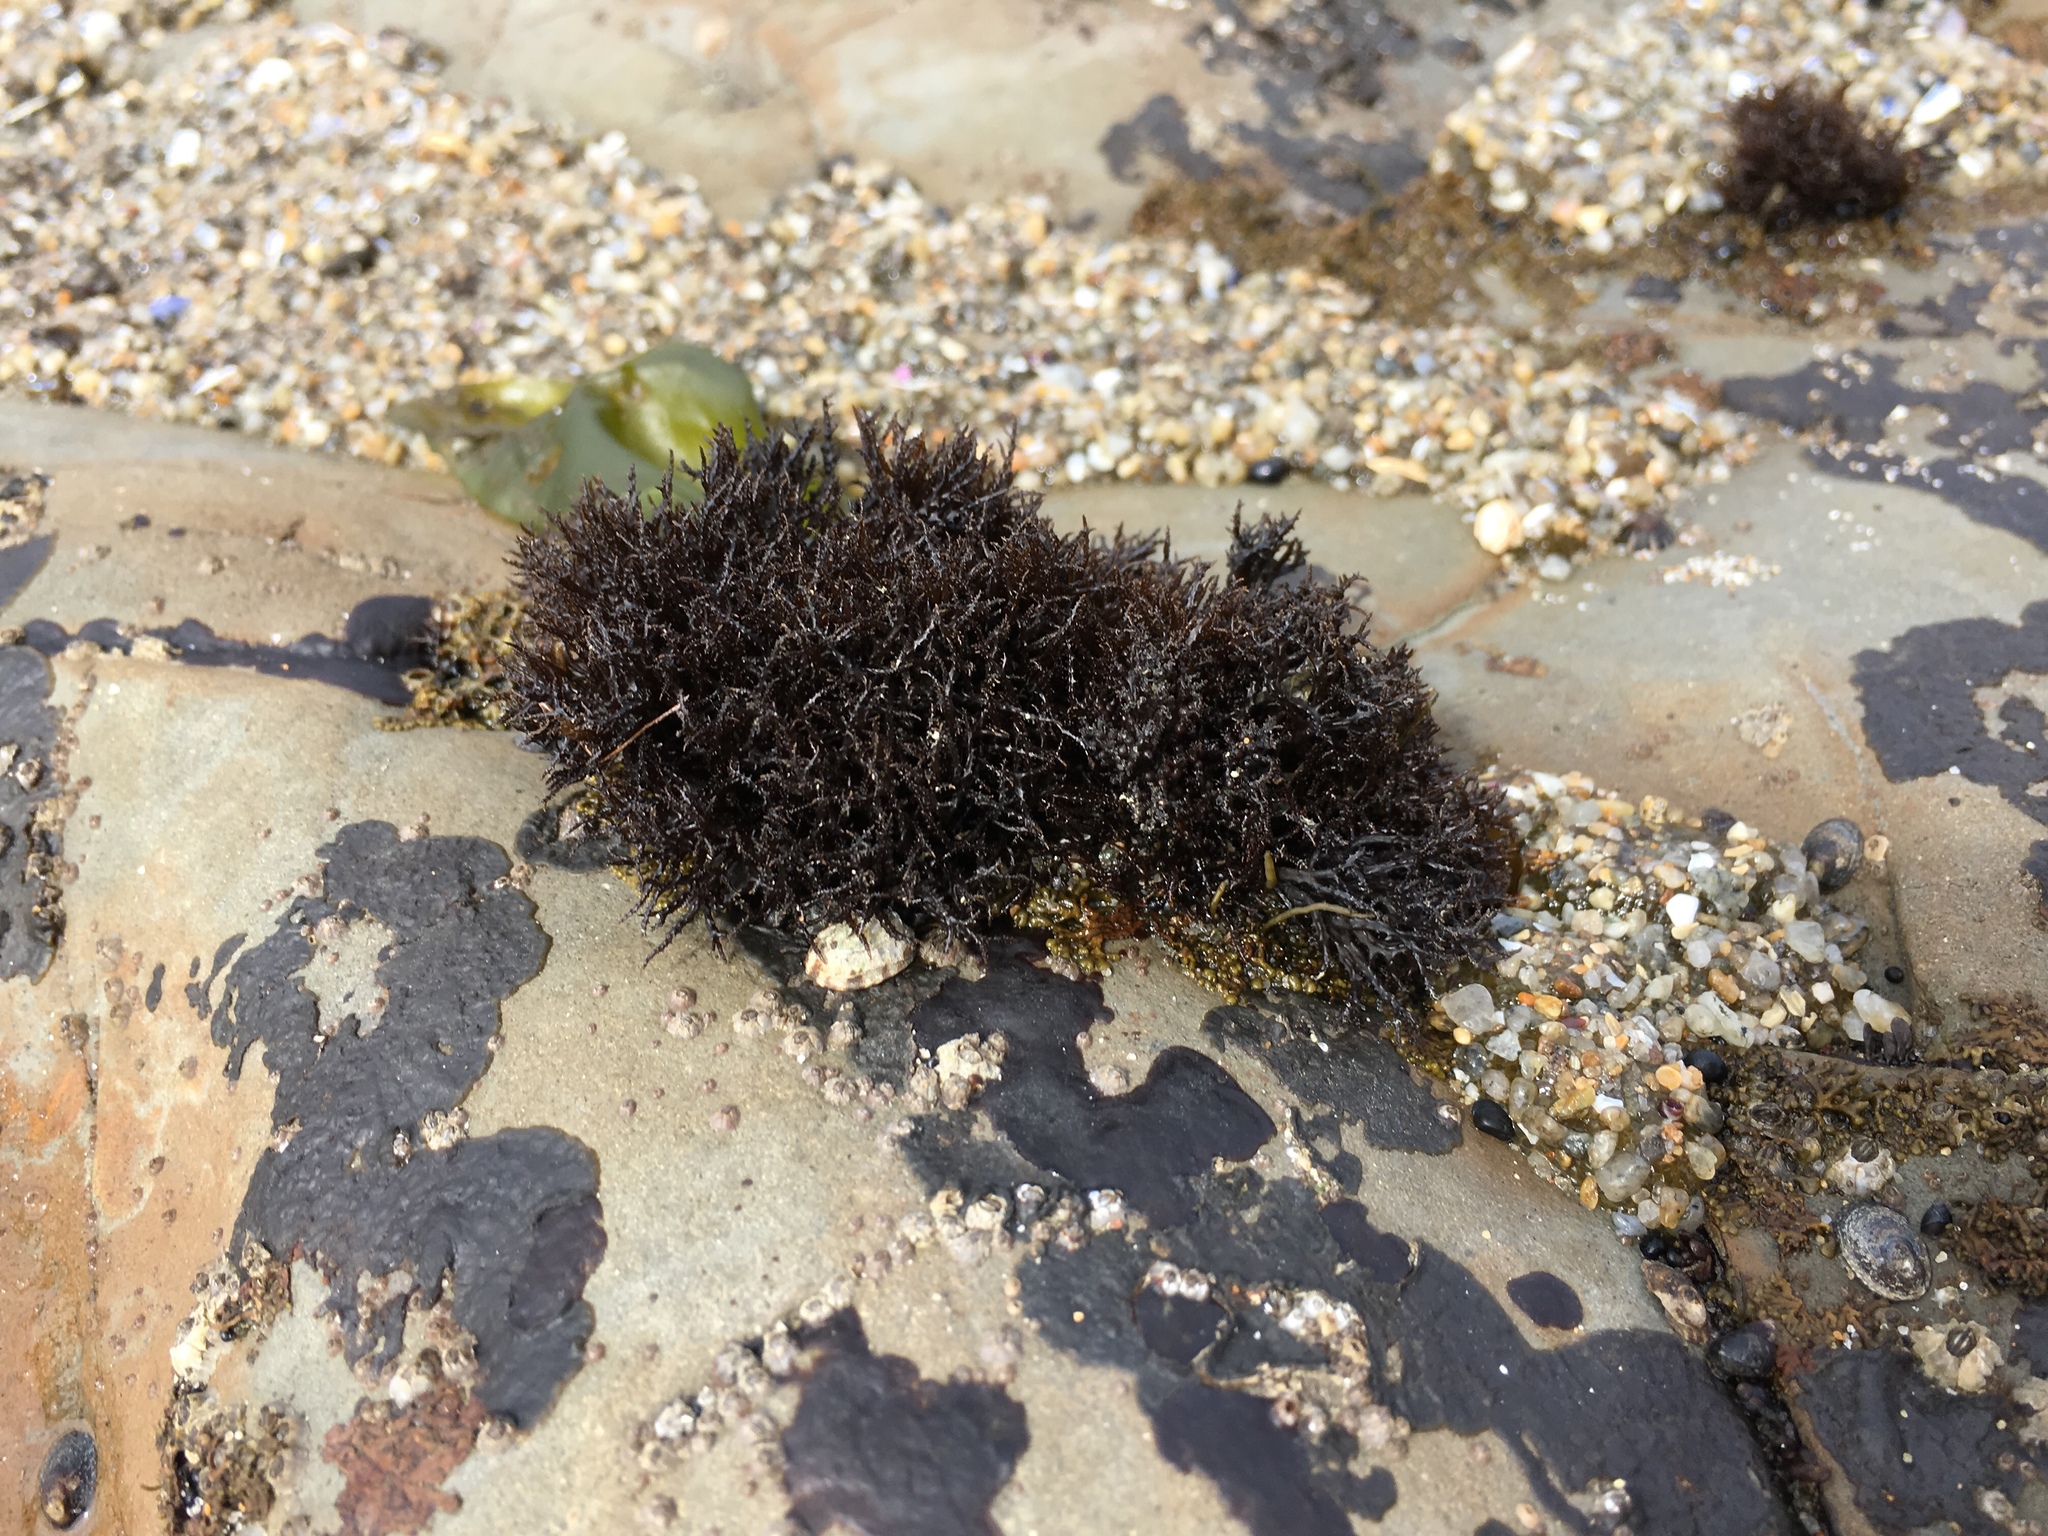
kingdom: Plantae
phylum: Rhodophyta
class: Florideophyceae
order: Gigartinales
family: Endocladiaceae
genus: Endocladia
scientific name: Endocladia muricata
